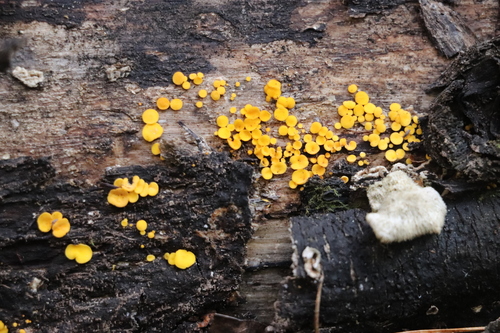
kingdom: Fungi
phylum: Ascomycota
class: Leotiomycetes
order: Helotiales
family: Pezizellaceae
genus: Calycina
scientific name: Calycina citrina
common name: Yellow fairy cups
